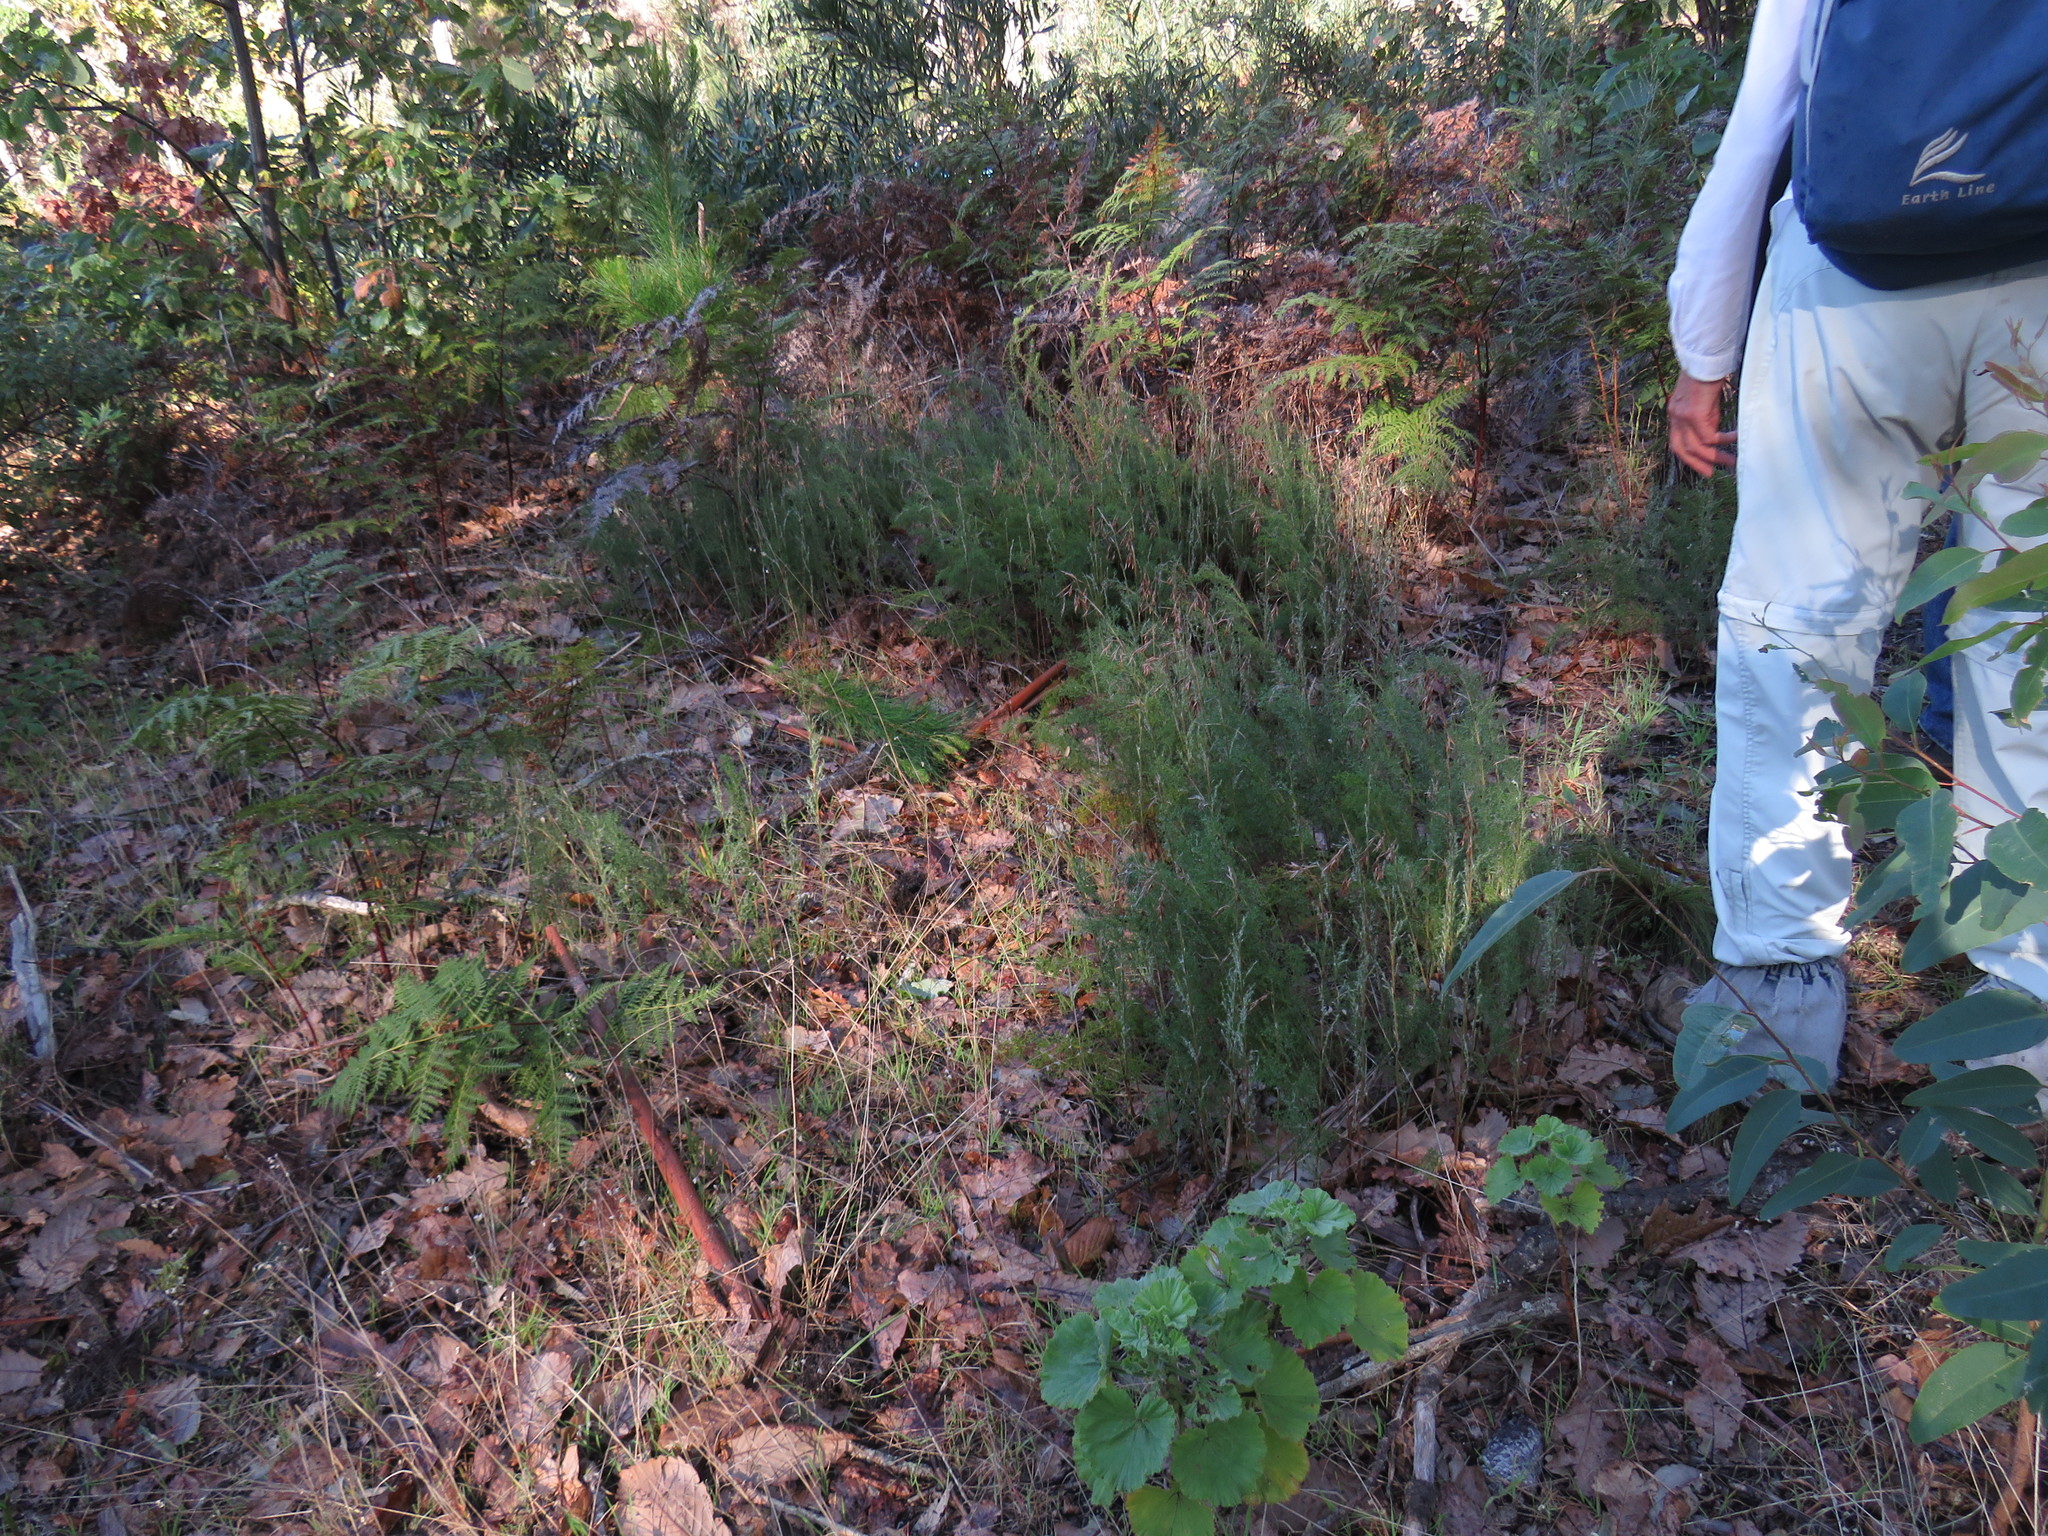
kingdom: Plantae
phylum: Tracheophyta
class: Liliopsida
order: Poales
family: Restionaceae
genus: Thamnochortus
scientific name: Thamnochortus fruticosus
